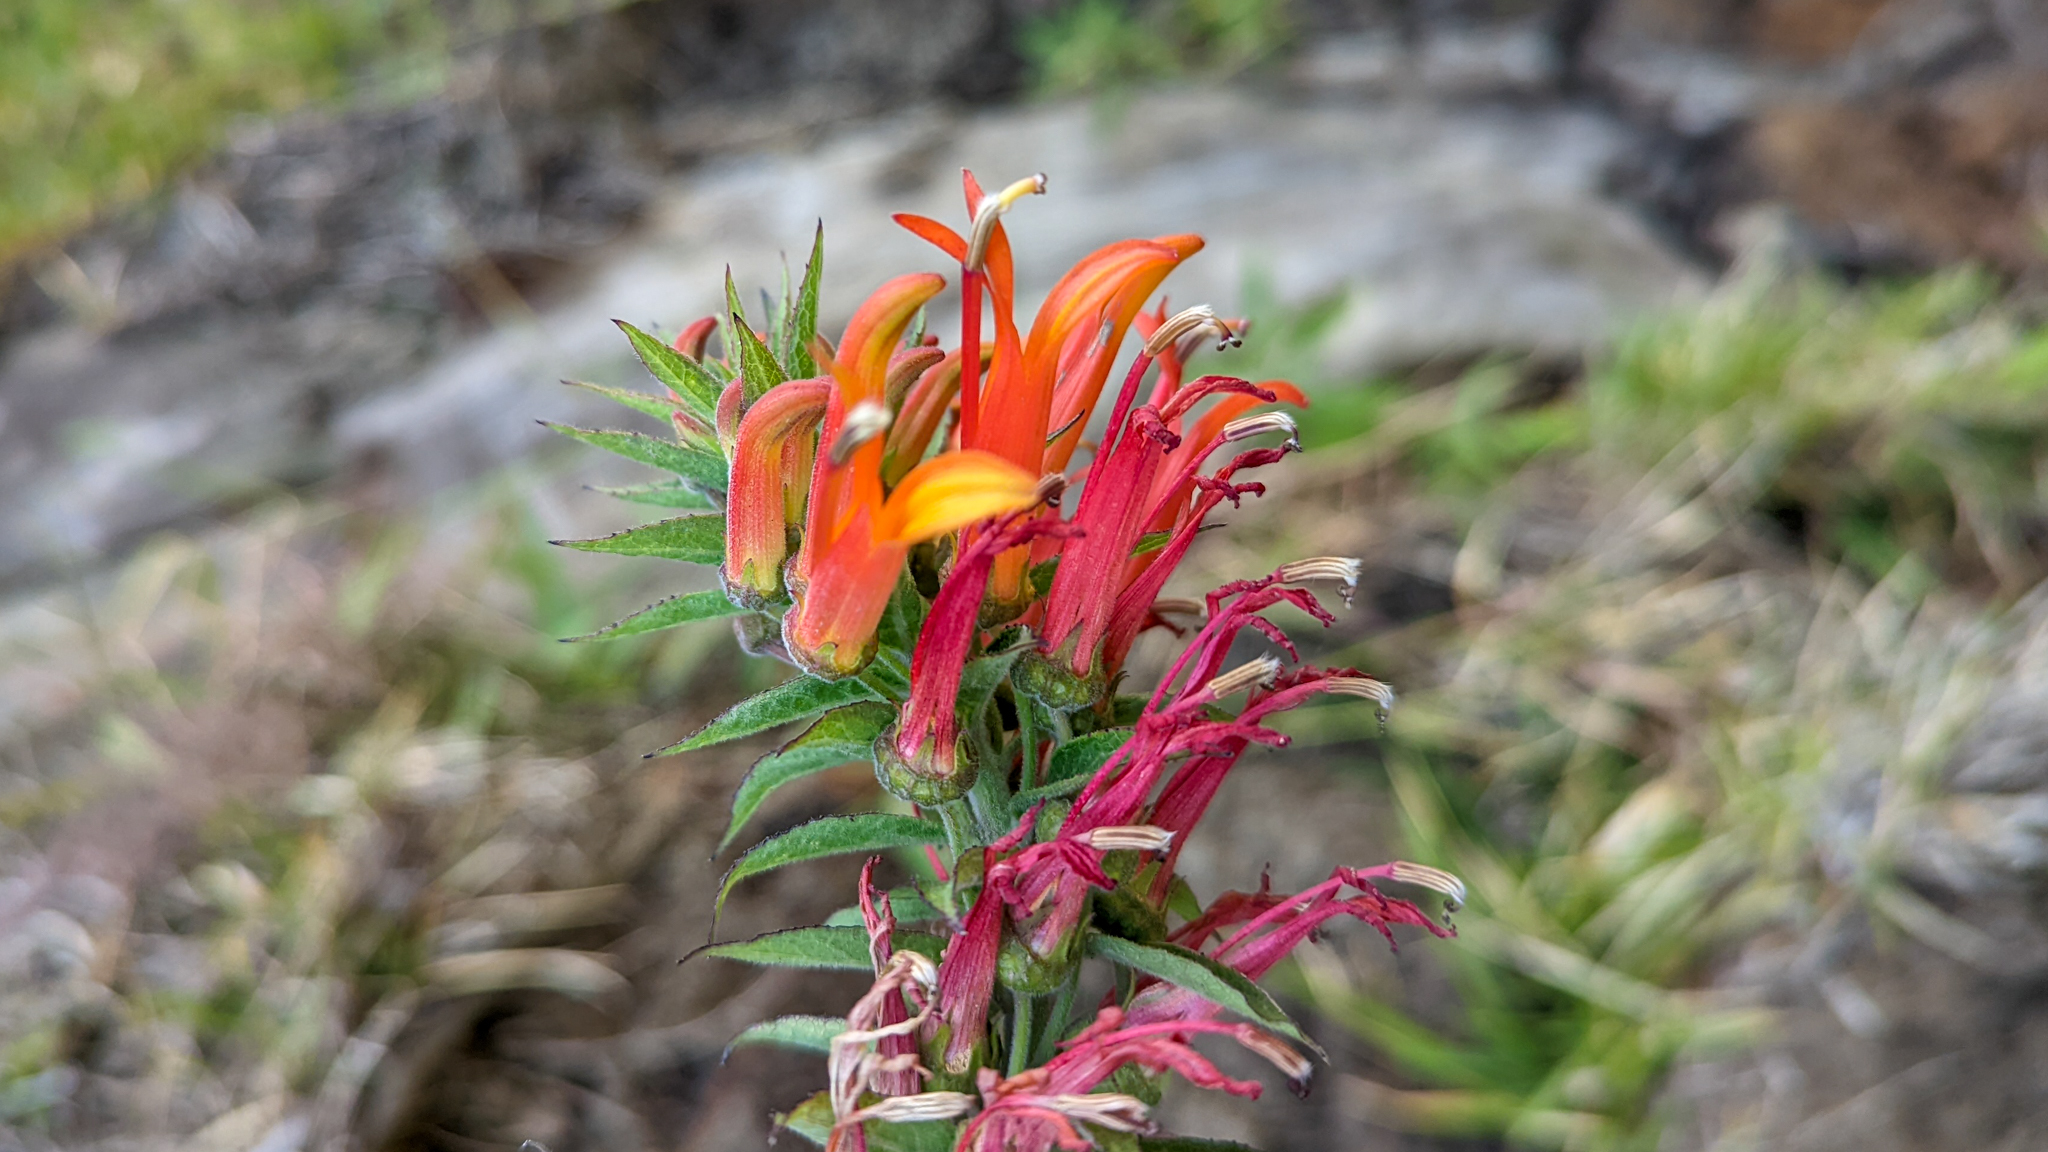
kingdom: Plantae
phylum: Tracheophyta
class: Magnoliopsida
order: Asterales
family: Campanulaceae
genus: Lobelia
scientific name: Lobelia laxiflora
